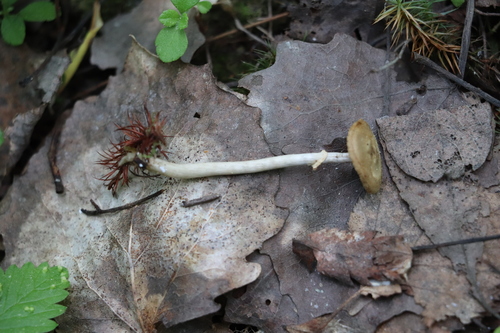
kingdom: Fungi
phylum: Basidiomycota
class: Agaricomycetes
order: Agaricales
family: Strophariaceae
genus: Agrocybe
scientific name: Agrocybe praecox
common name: Spring fieldcap
